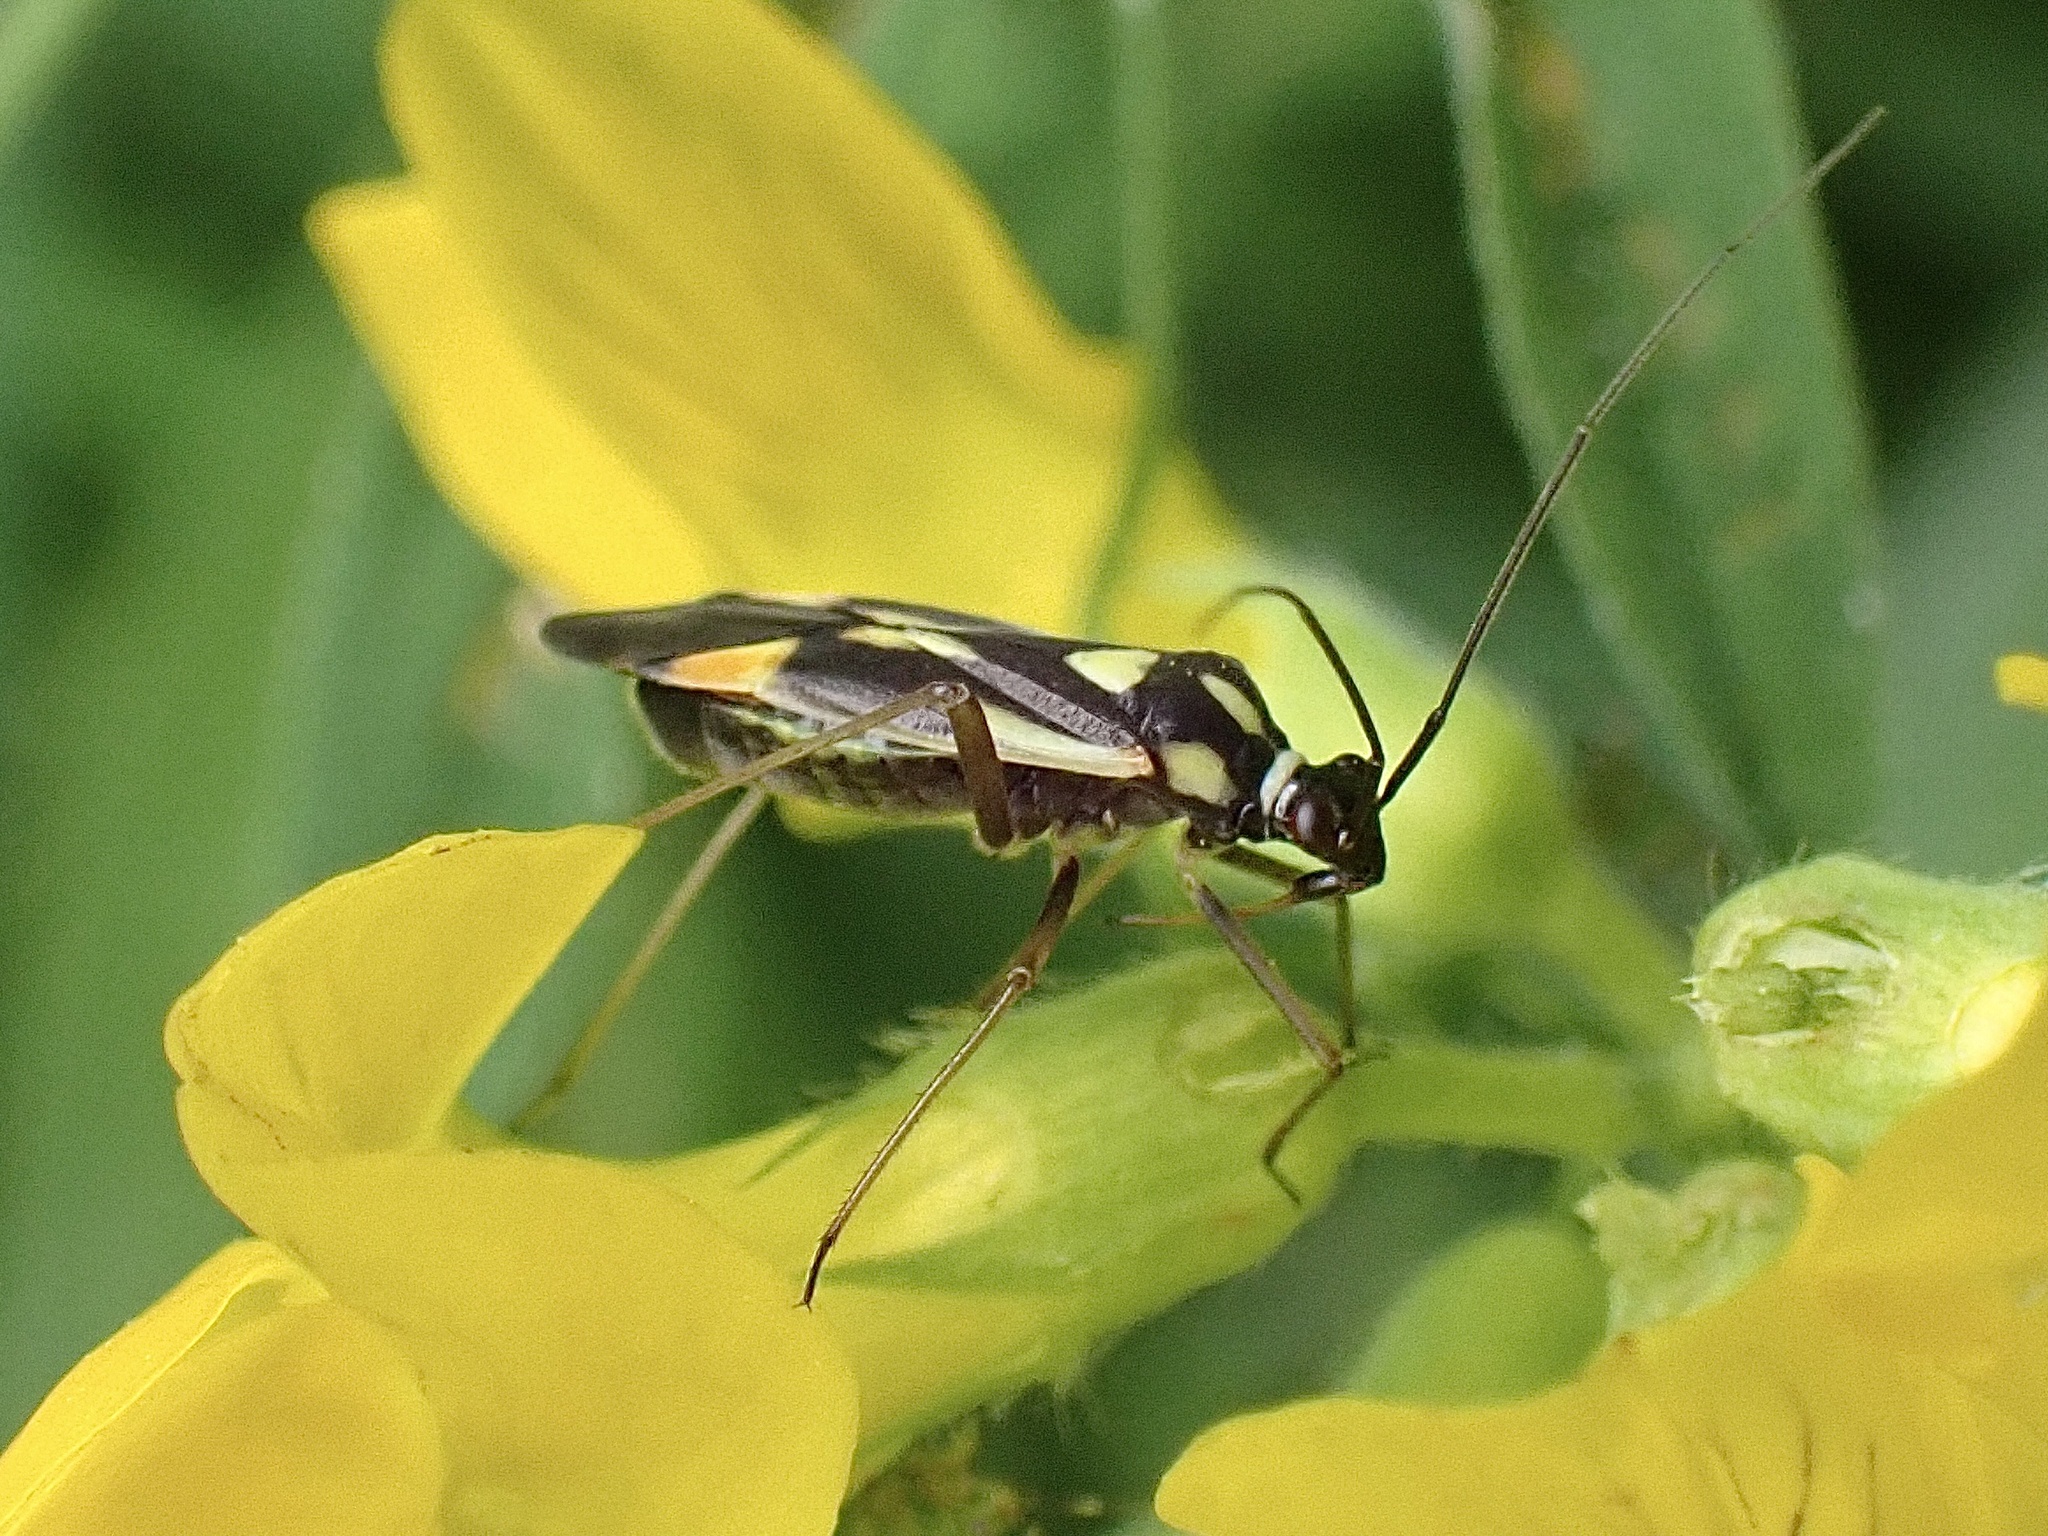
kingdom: Animalia
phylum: Arthropoda
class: Insecta
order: Hemiptera
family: Miridae
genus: Grypocoris
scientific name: Grypocoris stysi
